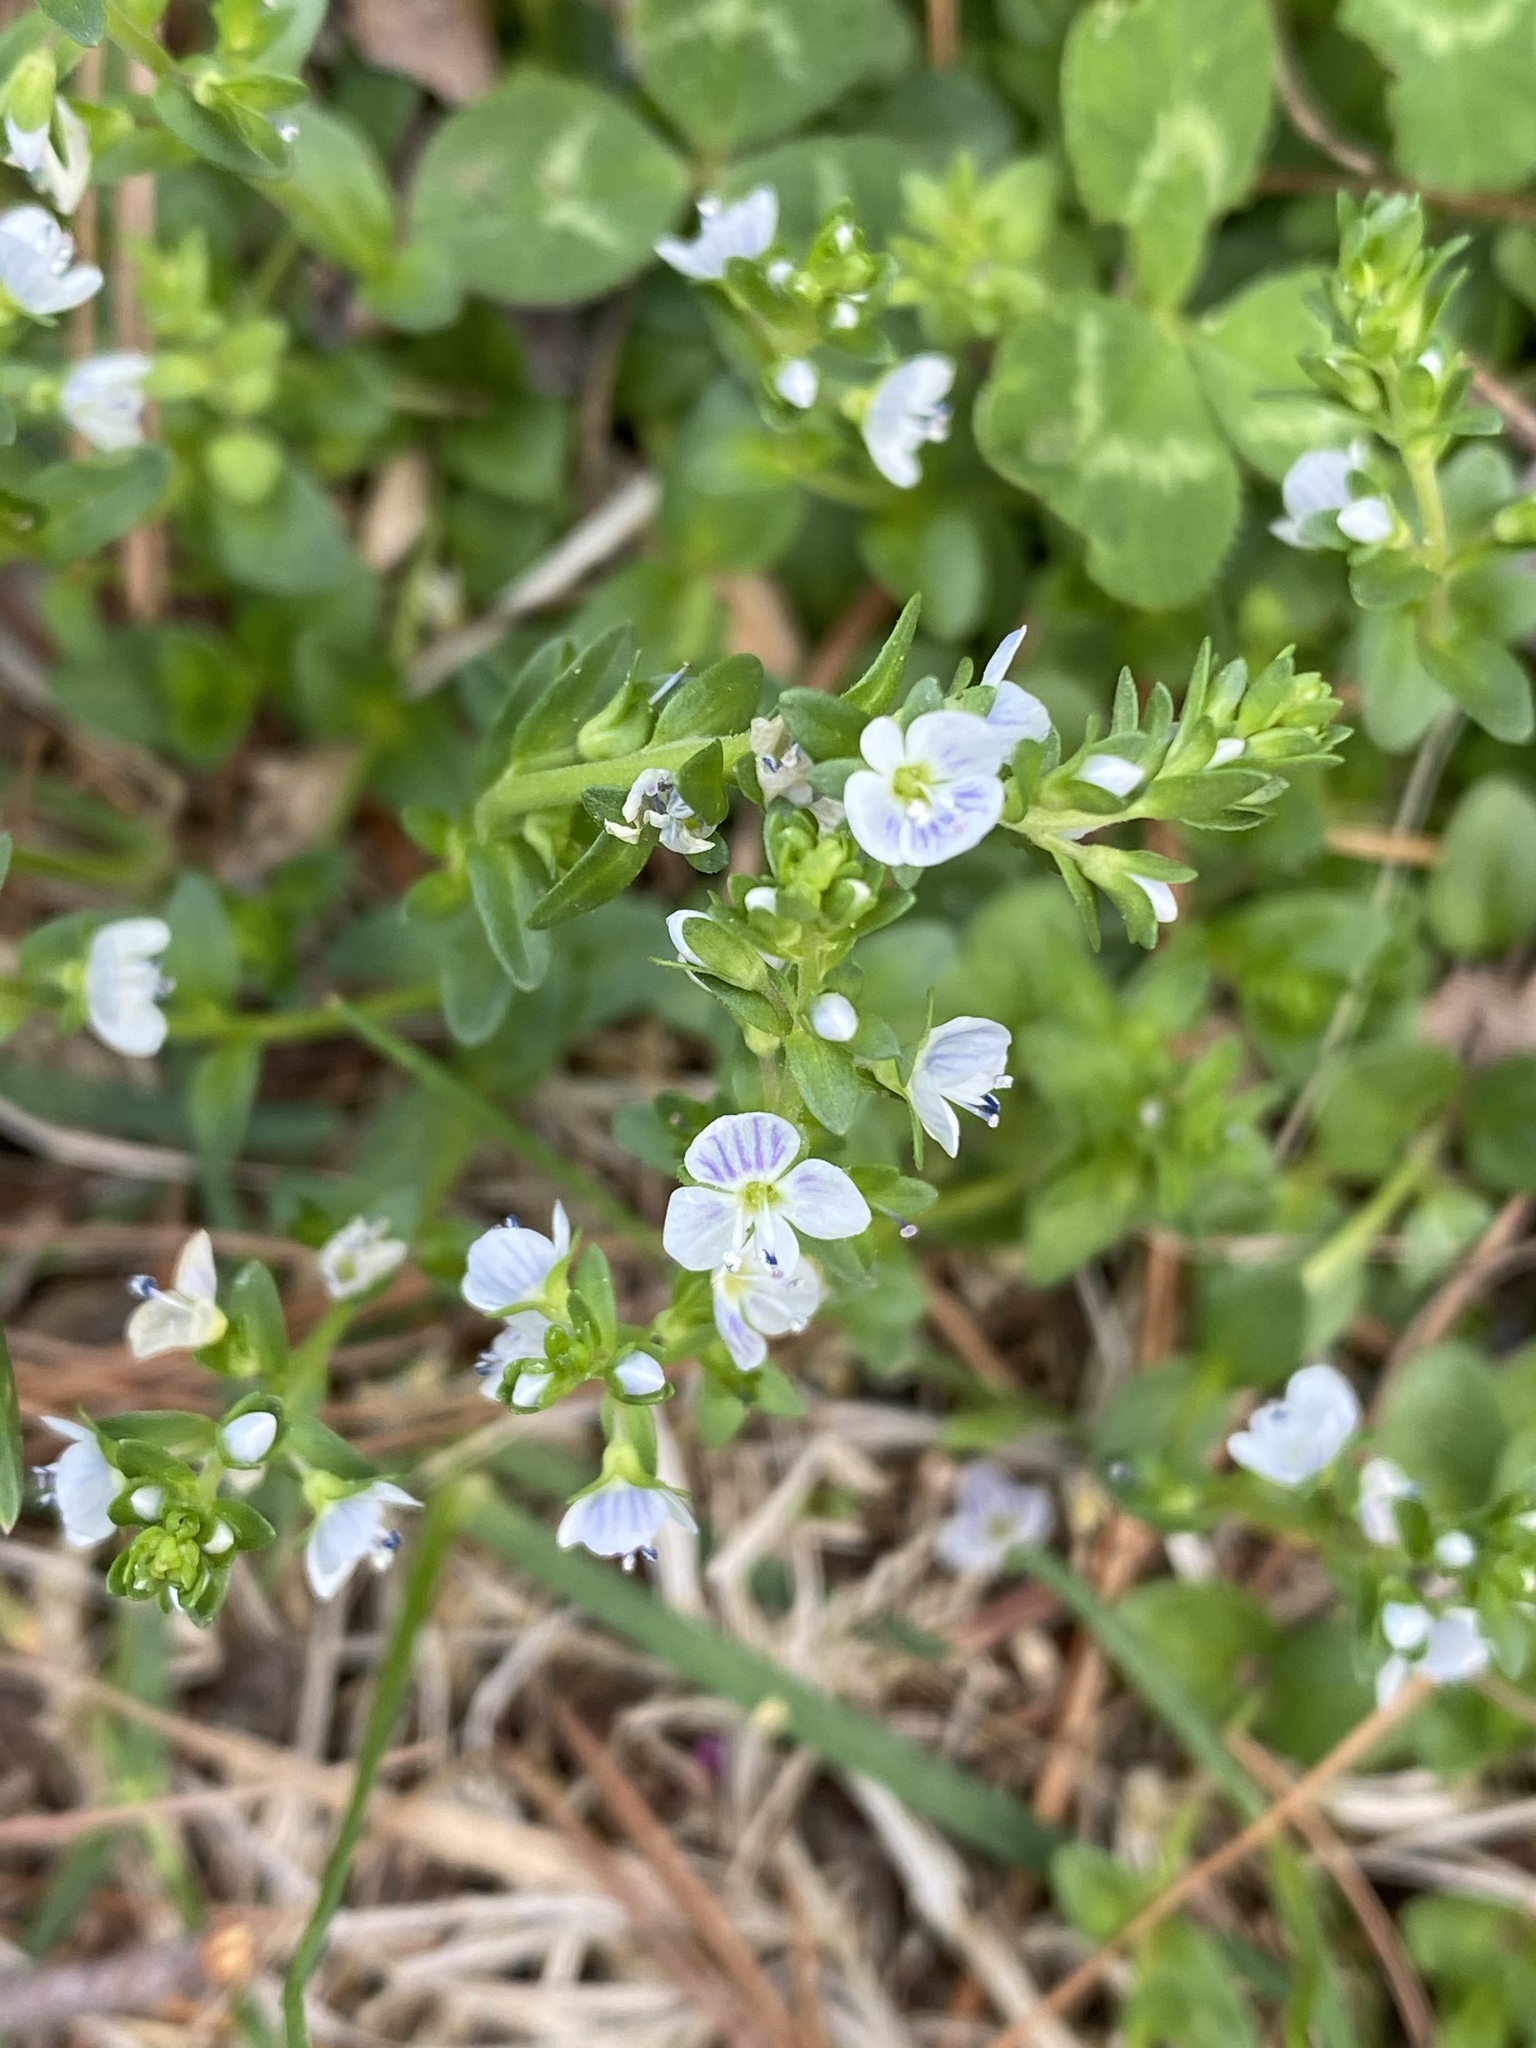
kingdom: Plantae
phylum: Tracheophyta
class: Magnoliopsida
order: Lamiales
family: Plantaginaceae
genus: Veronica
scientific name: Veronica serpyllifolia
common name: Thyme-leaved speedwell
